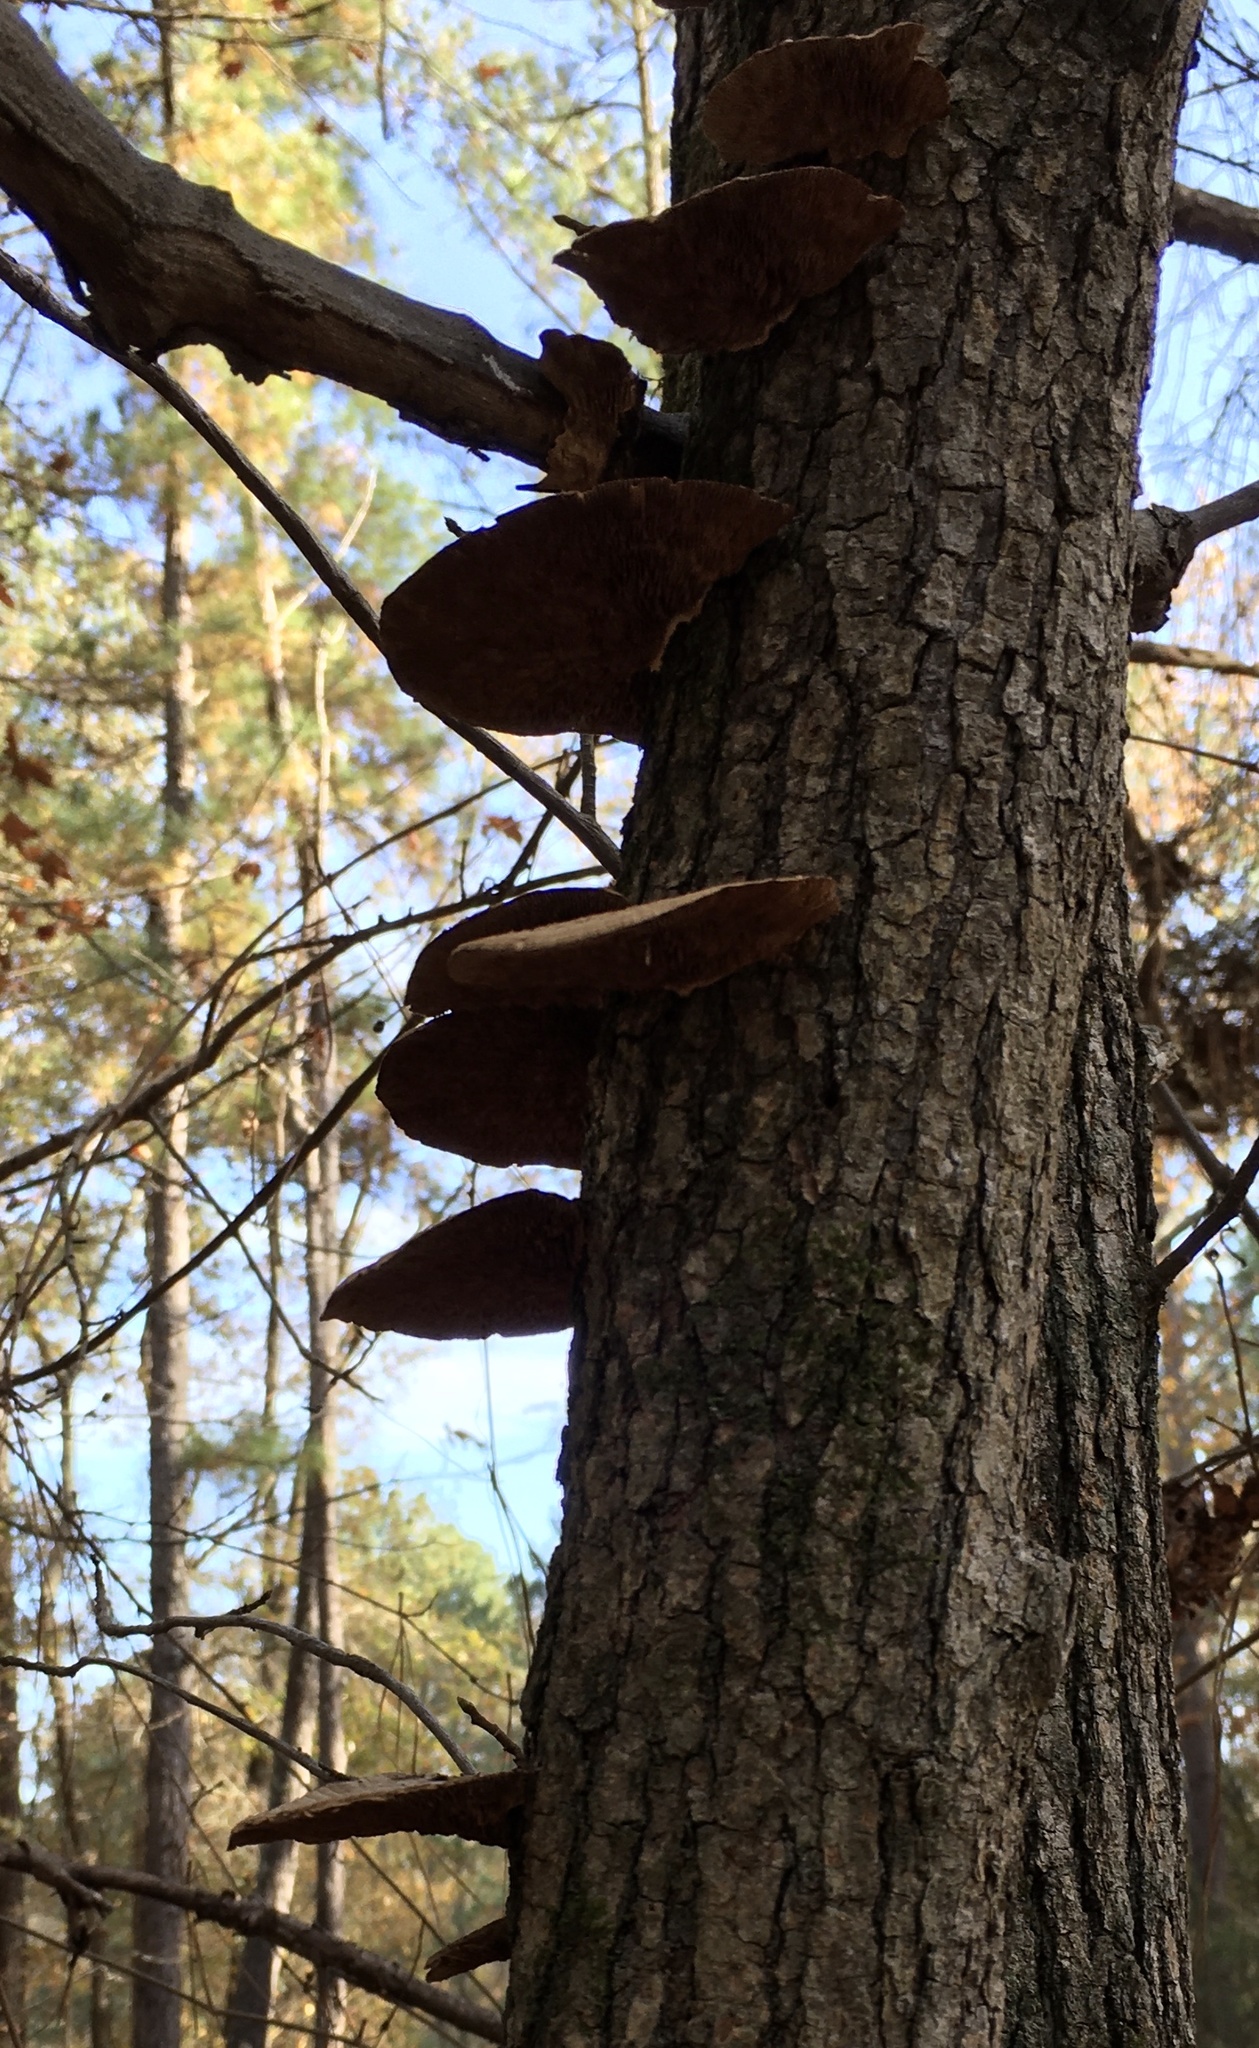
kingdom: Fungi
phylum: Basidiomycota
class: Agaricomycetes
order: Polyporales
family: Polyporaceae
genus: Daedaleopsis
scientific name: Daedaleopsis confragosa
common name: Blushing bracket
